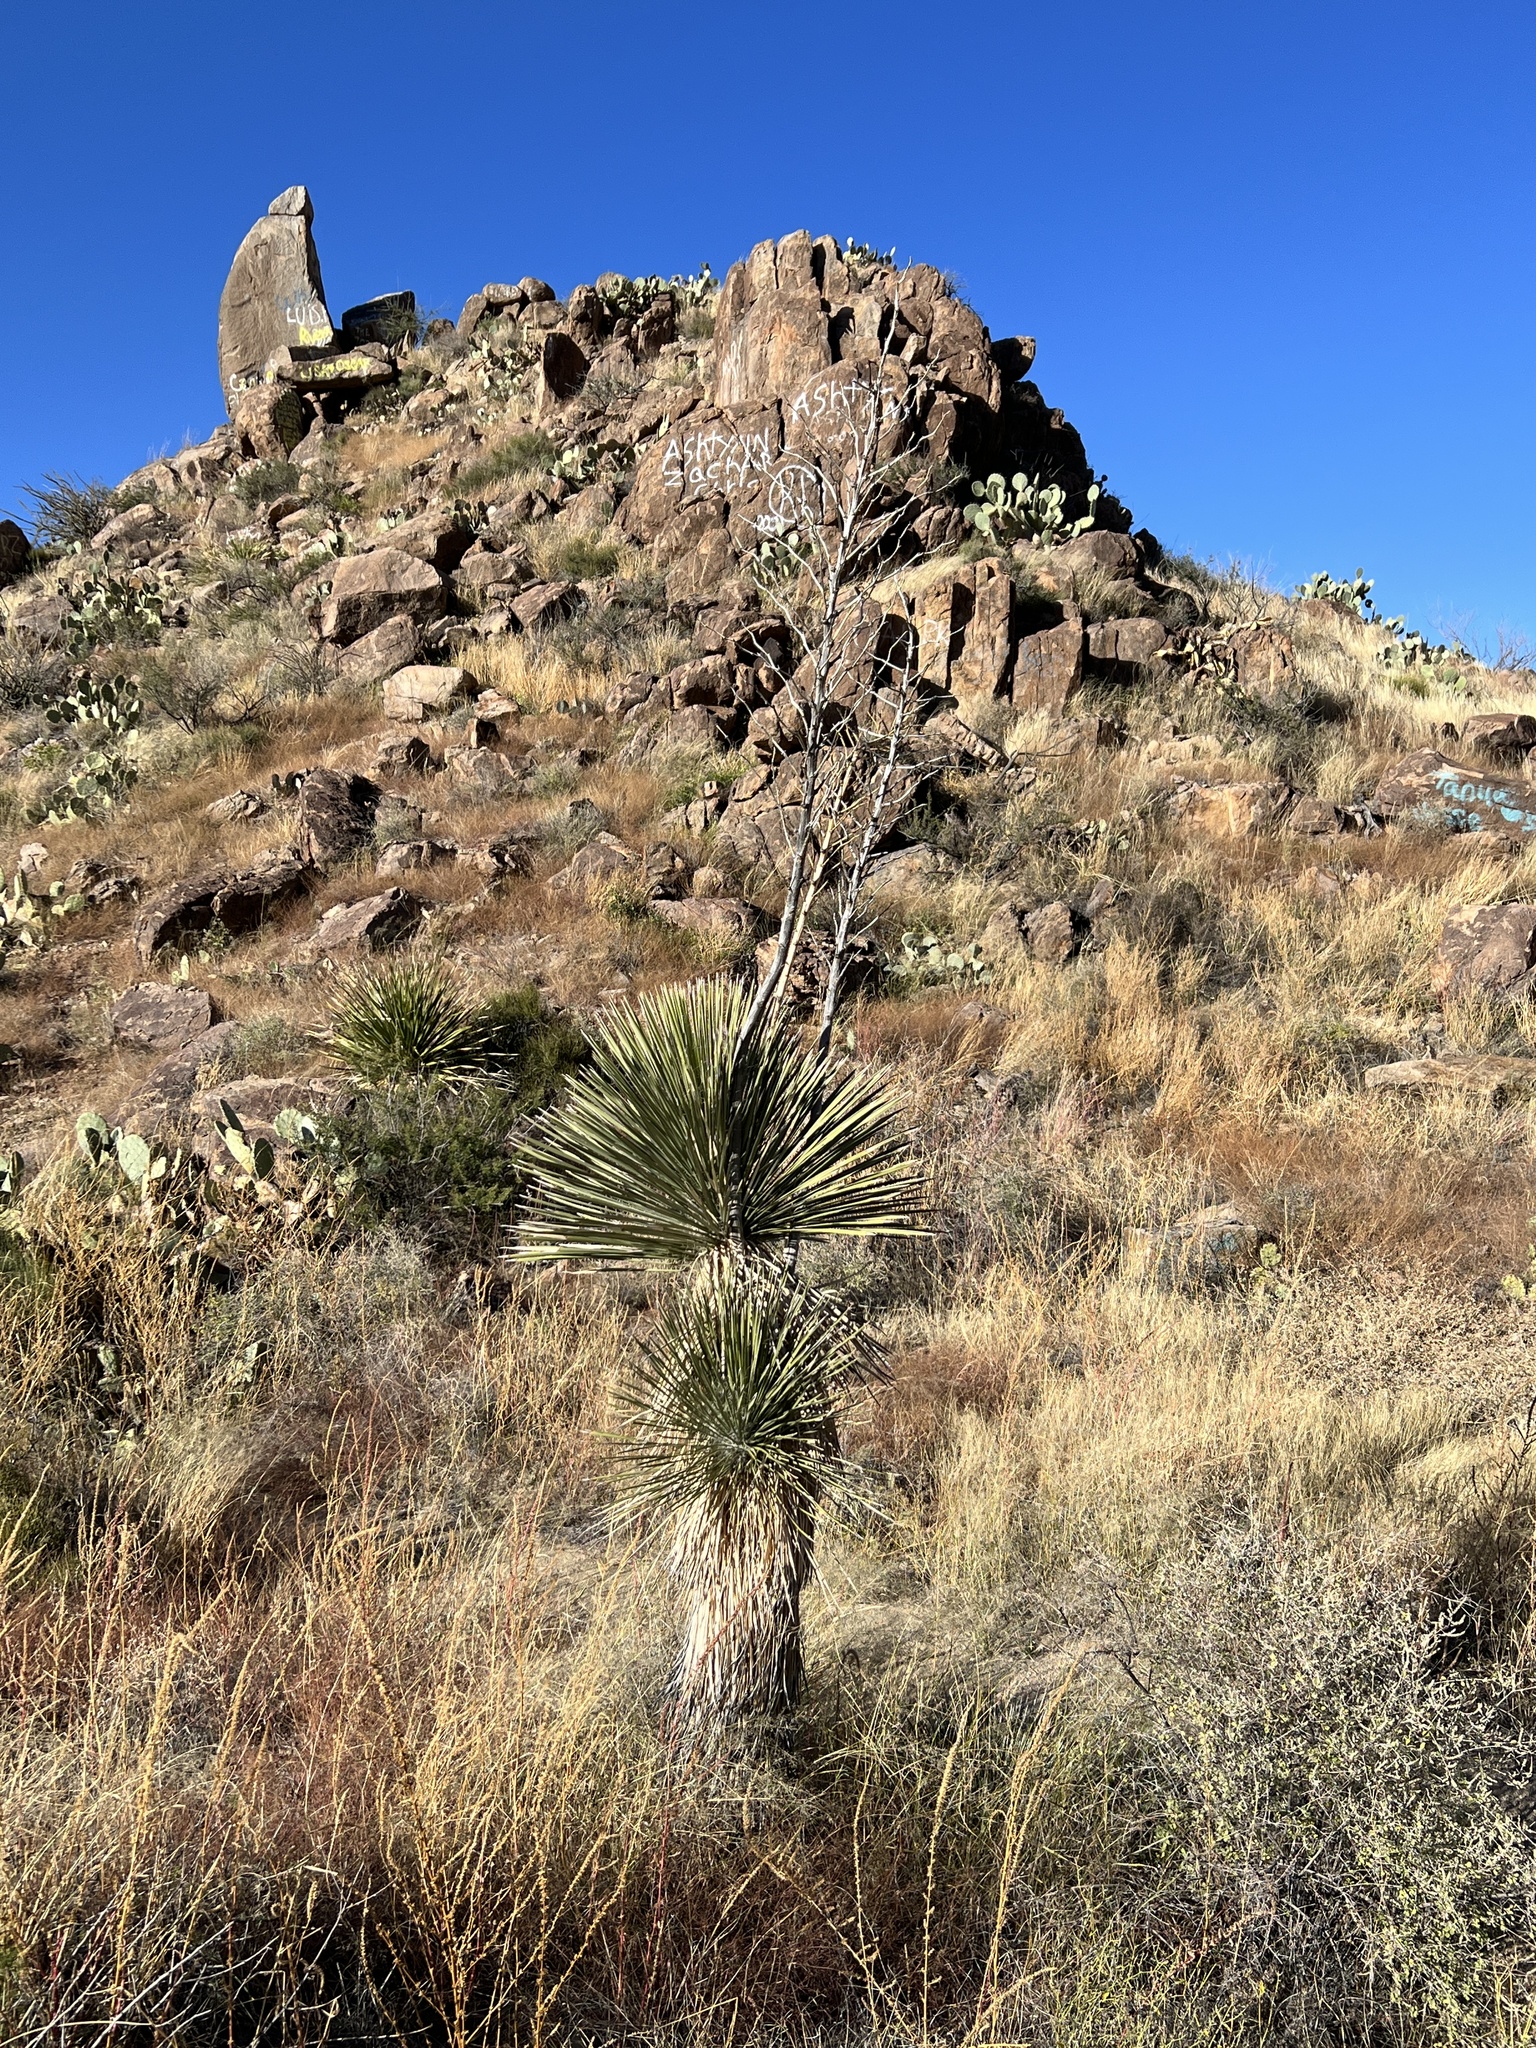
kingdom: Plantae
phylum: Tracheophyta
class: Liliopsida
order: Asparagales
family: Asparagaceae
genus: Yucca
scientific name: Yucca elata
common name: Palmella
